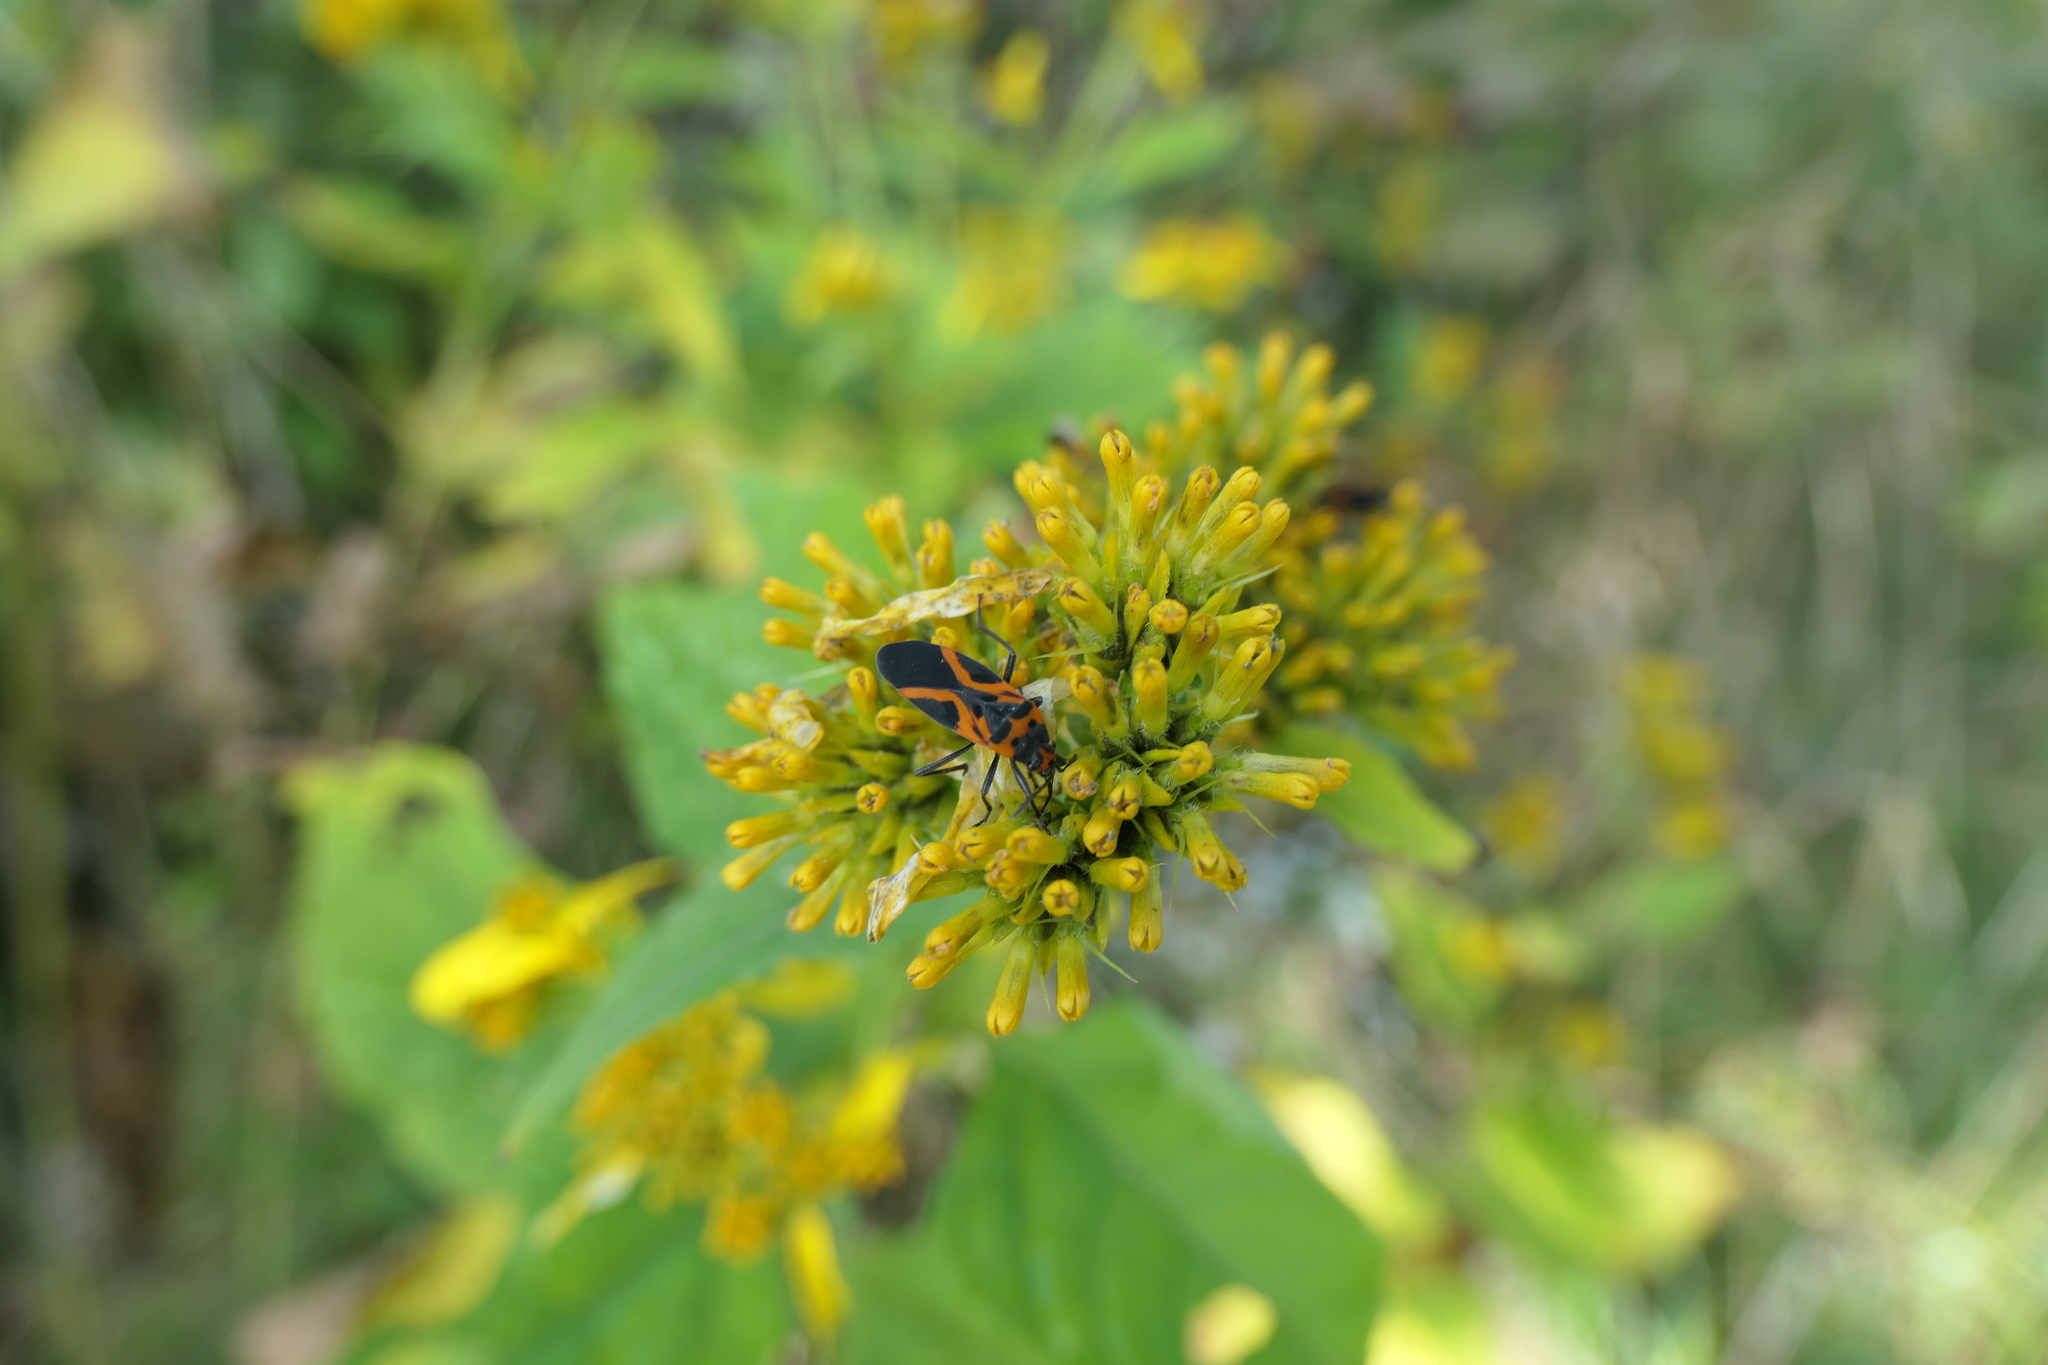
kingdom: Animalia
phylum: Arthropoda
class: Insecta
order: Hemiptera
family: Lygaeidae
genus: Lygaeus
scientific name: Lygaeus turcicus
